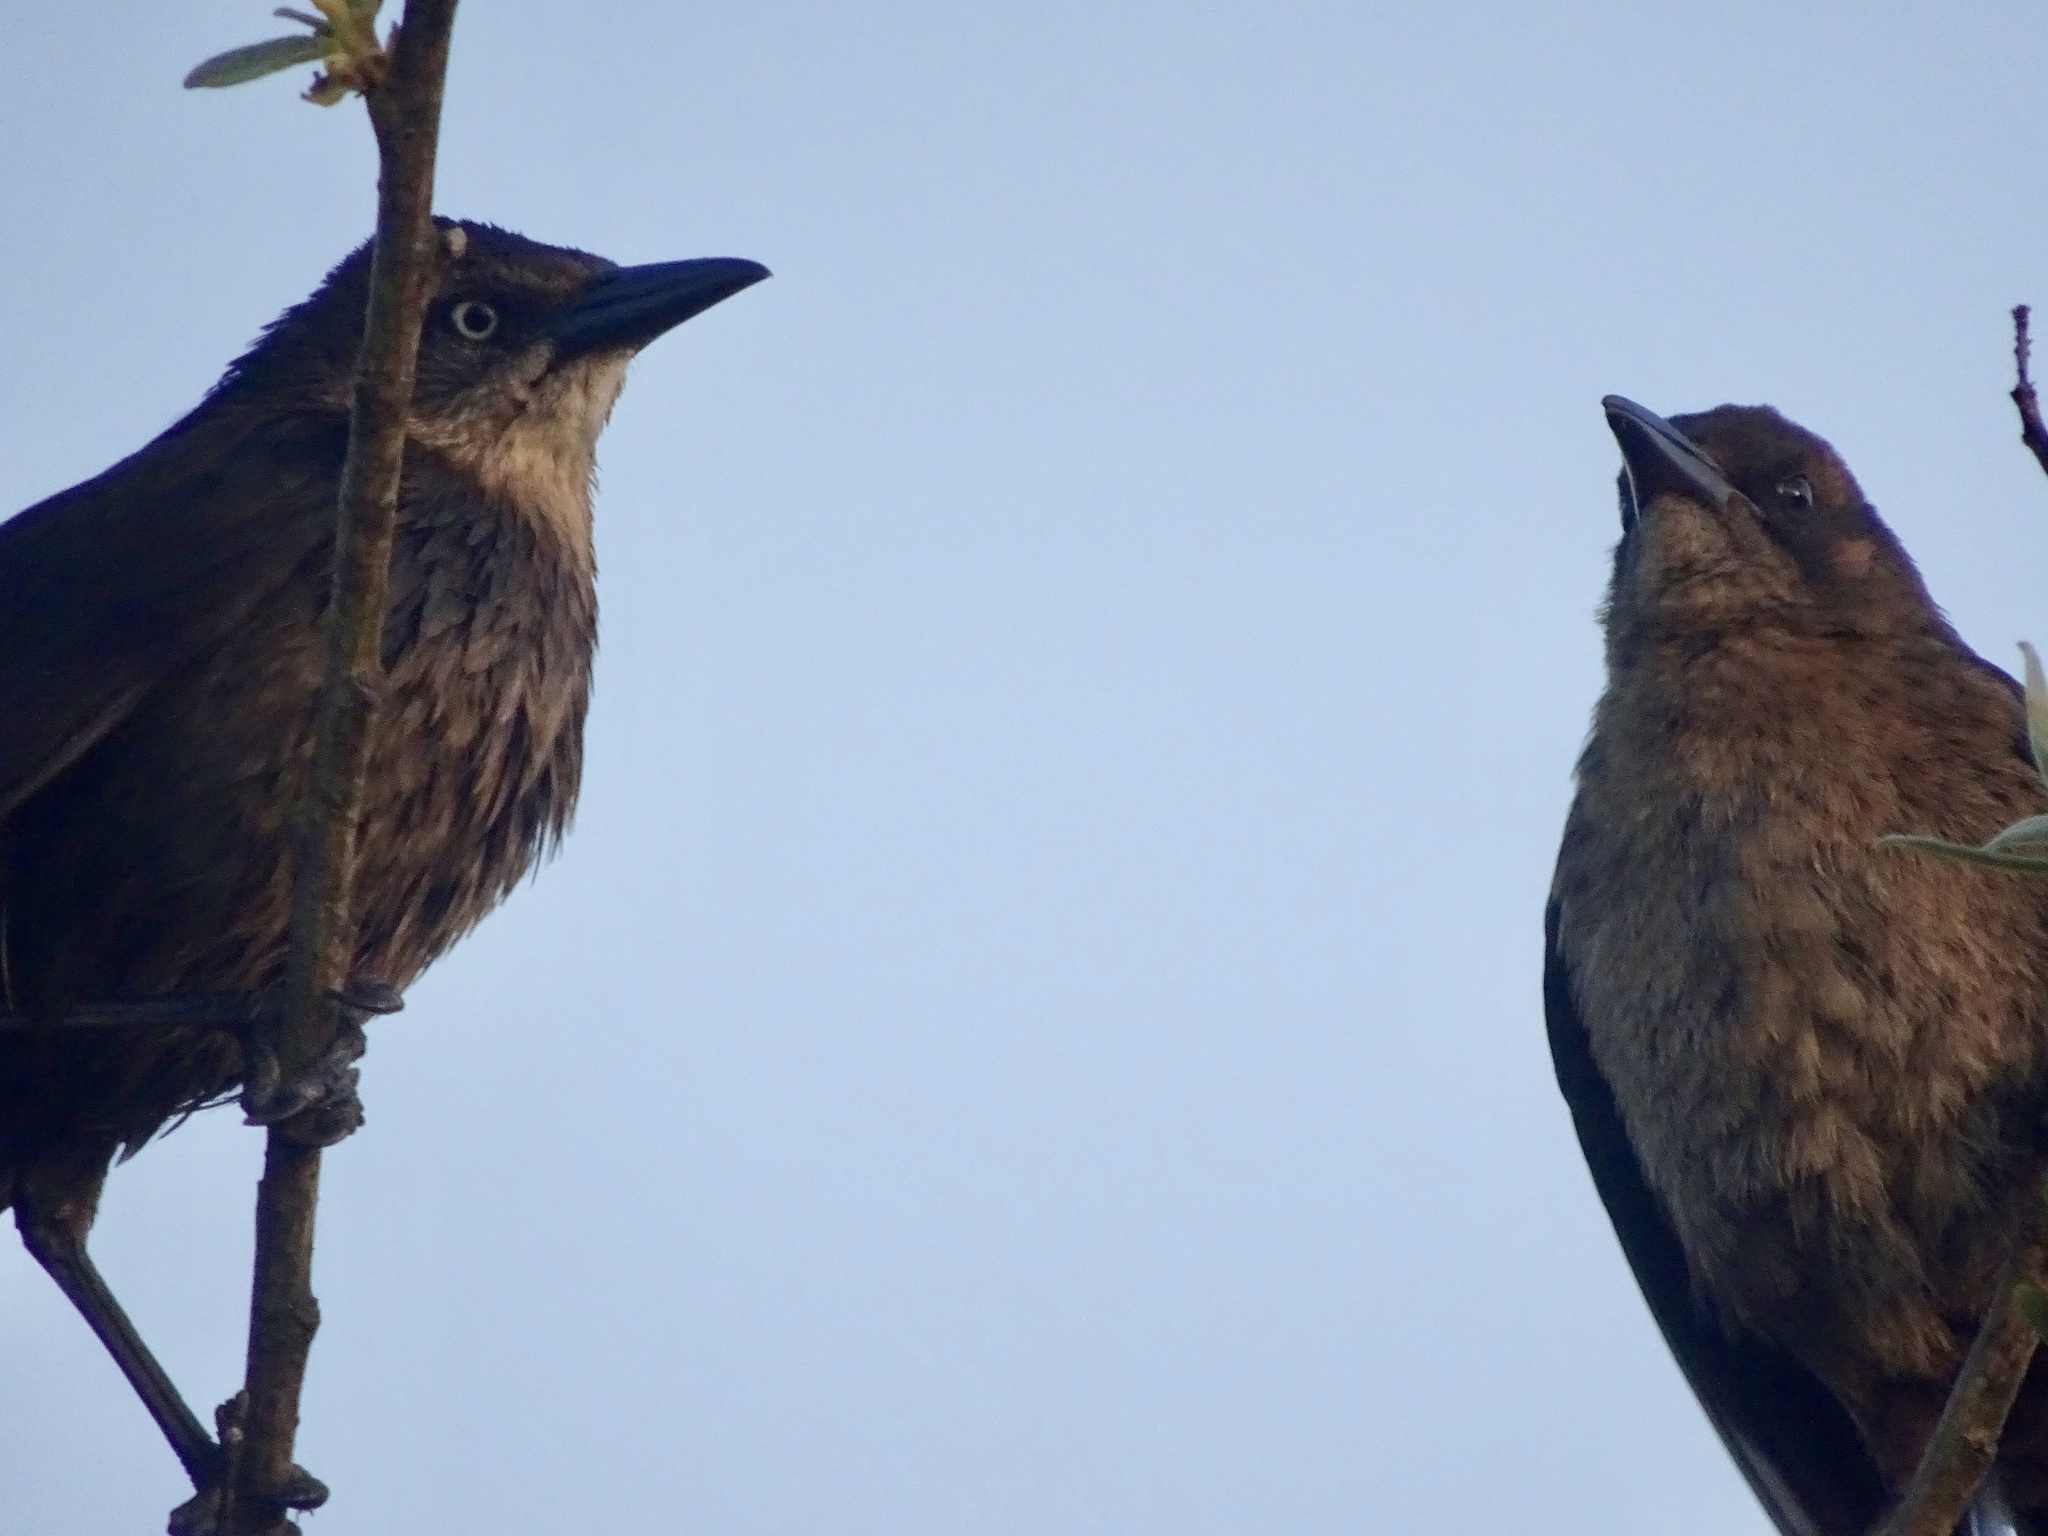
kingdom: Animalia
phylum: Chordata
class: Aves
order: Passeriformes
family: Icteridae
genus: Quiscalus
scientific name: Quiscalus mexicanus
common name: Great-tailed grackle
